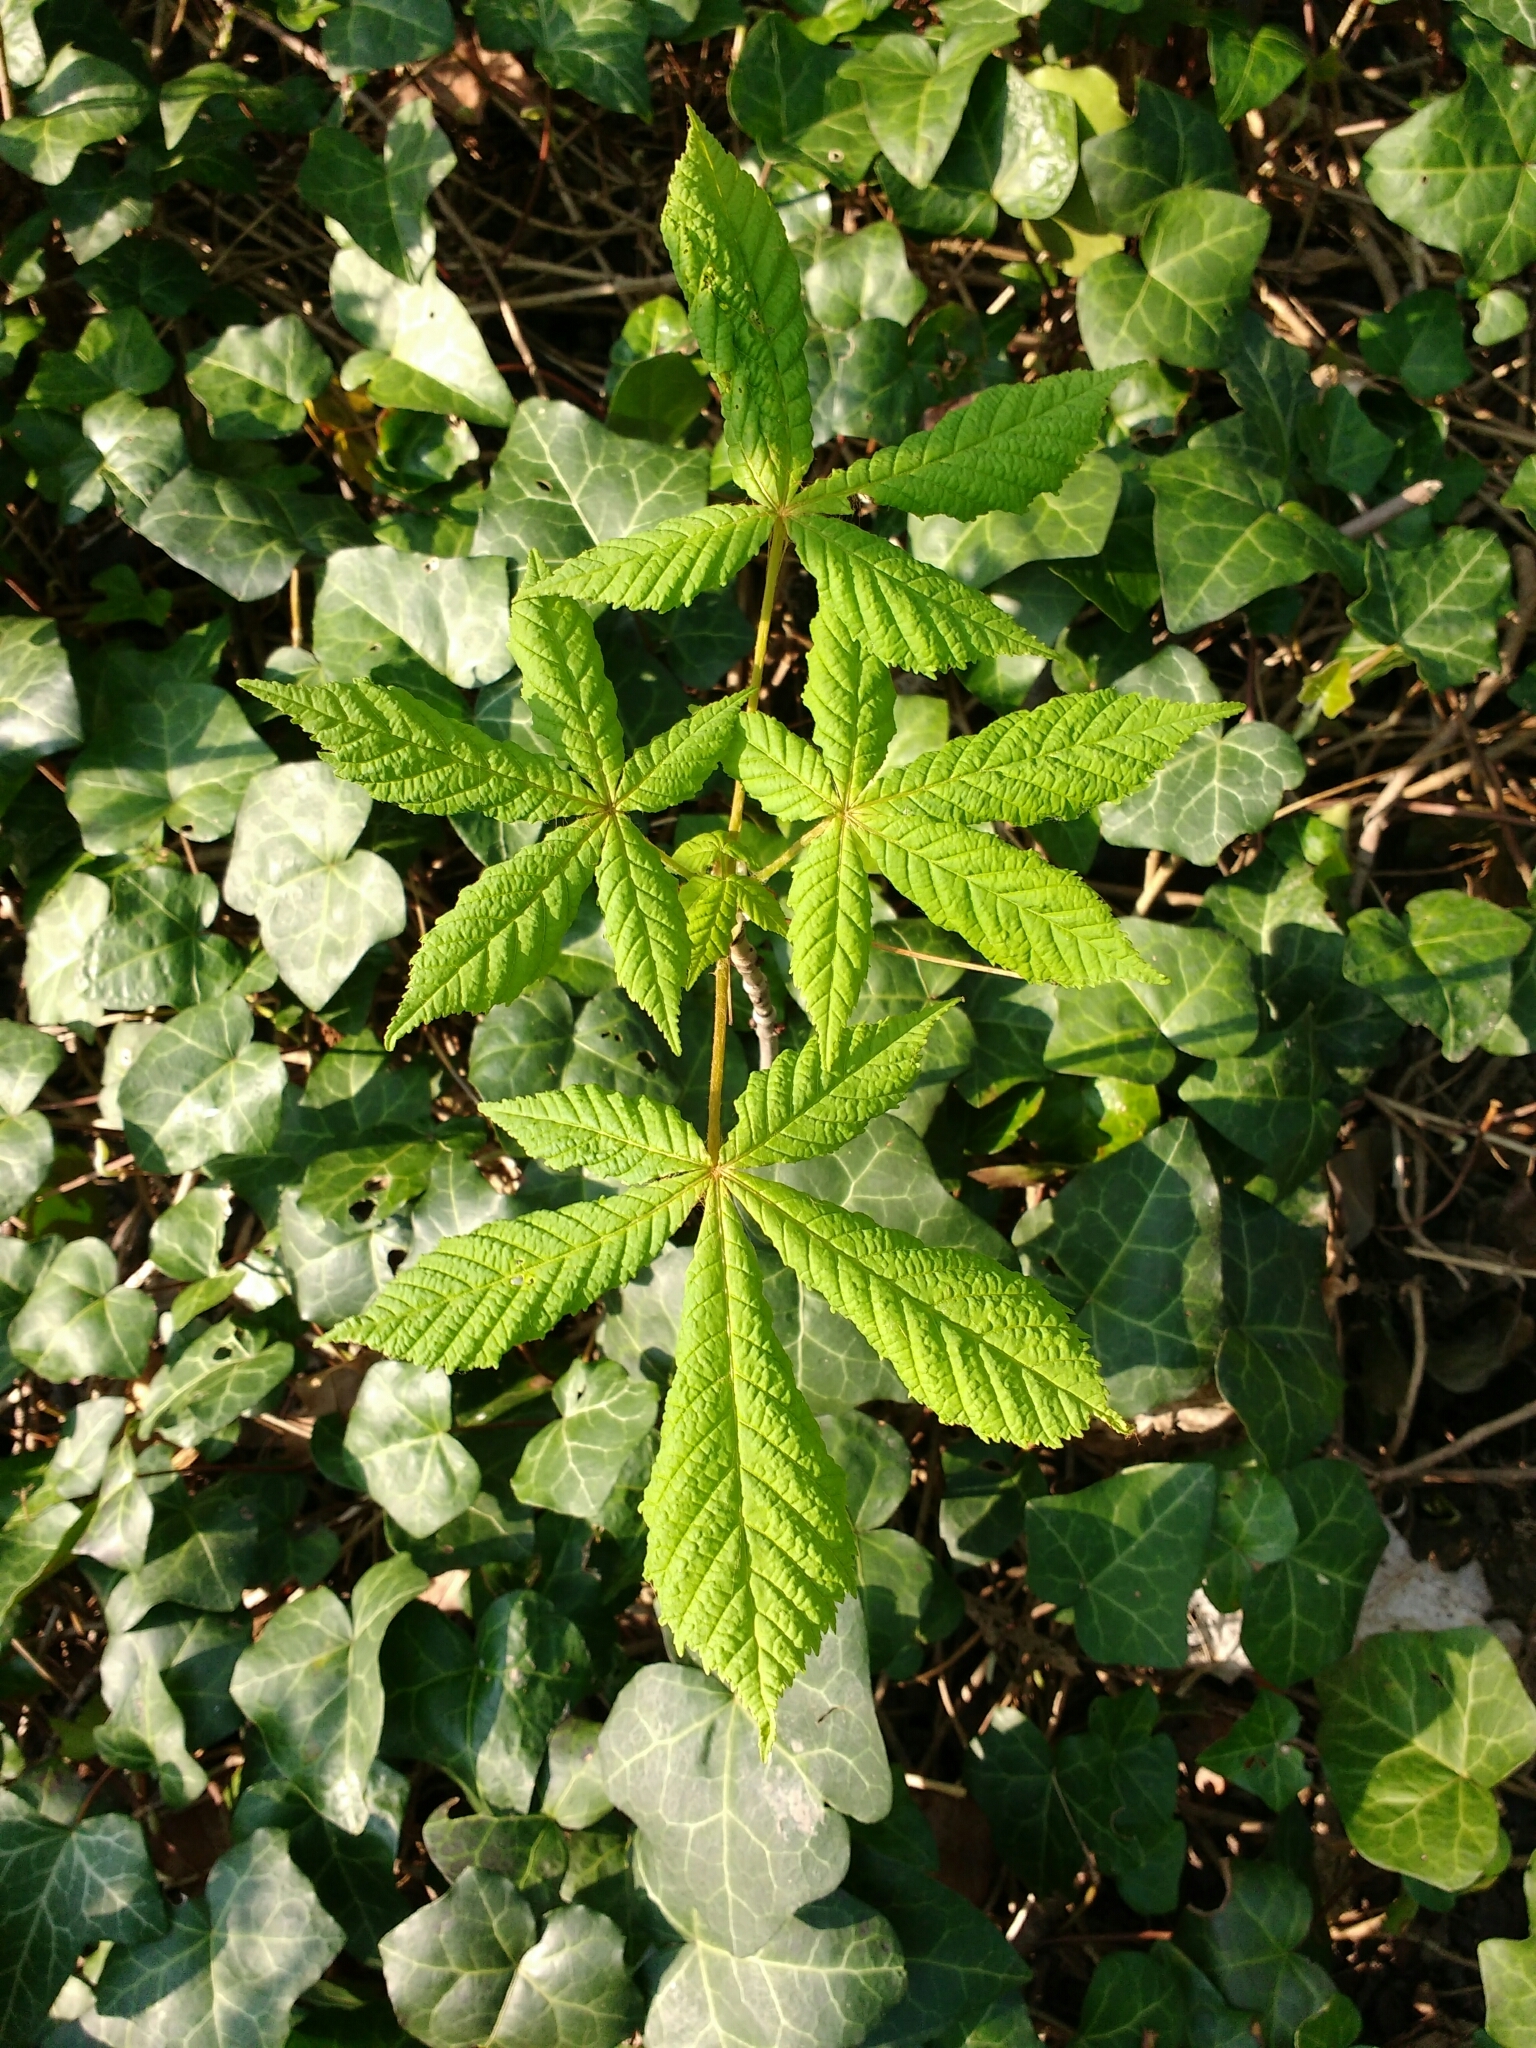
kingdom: Plantae
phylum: Tracheophyta
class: Magnoliopsida
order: Sapindales
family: Sapindaceae
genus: Aesculus
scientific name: Aesculus hippocastanum
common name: Horse-chestnut
